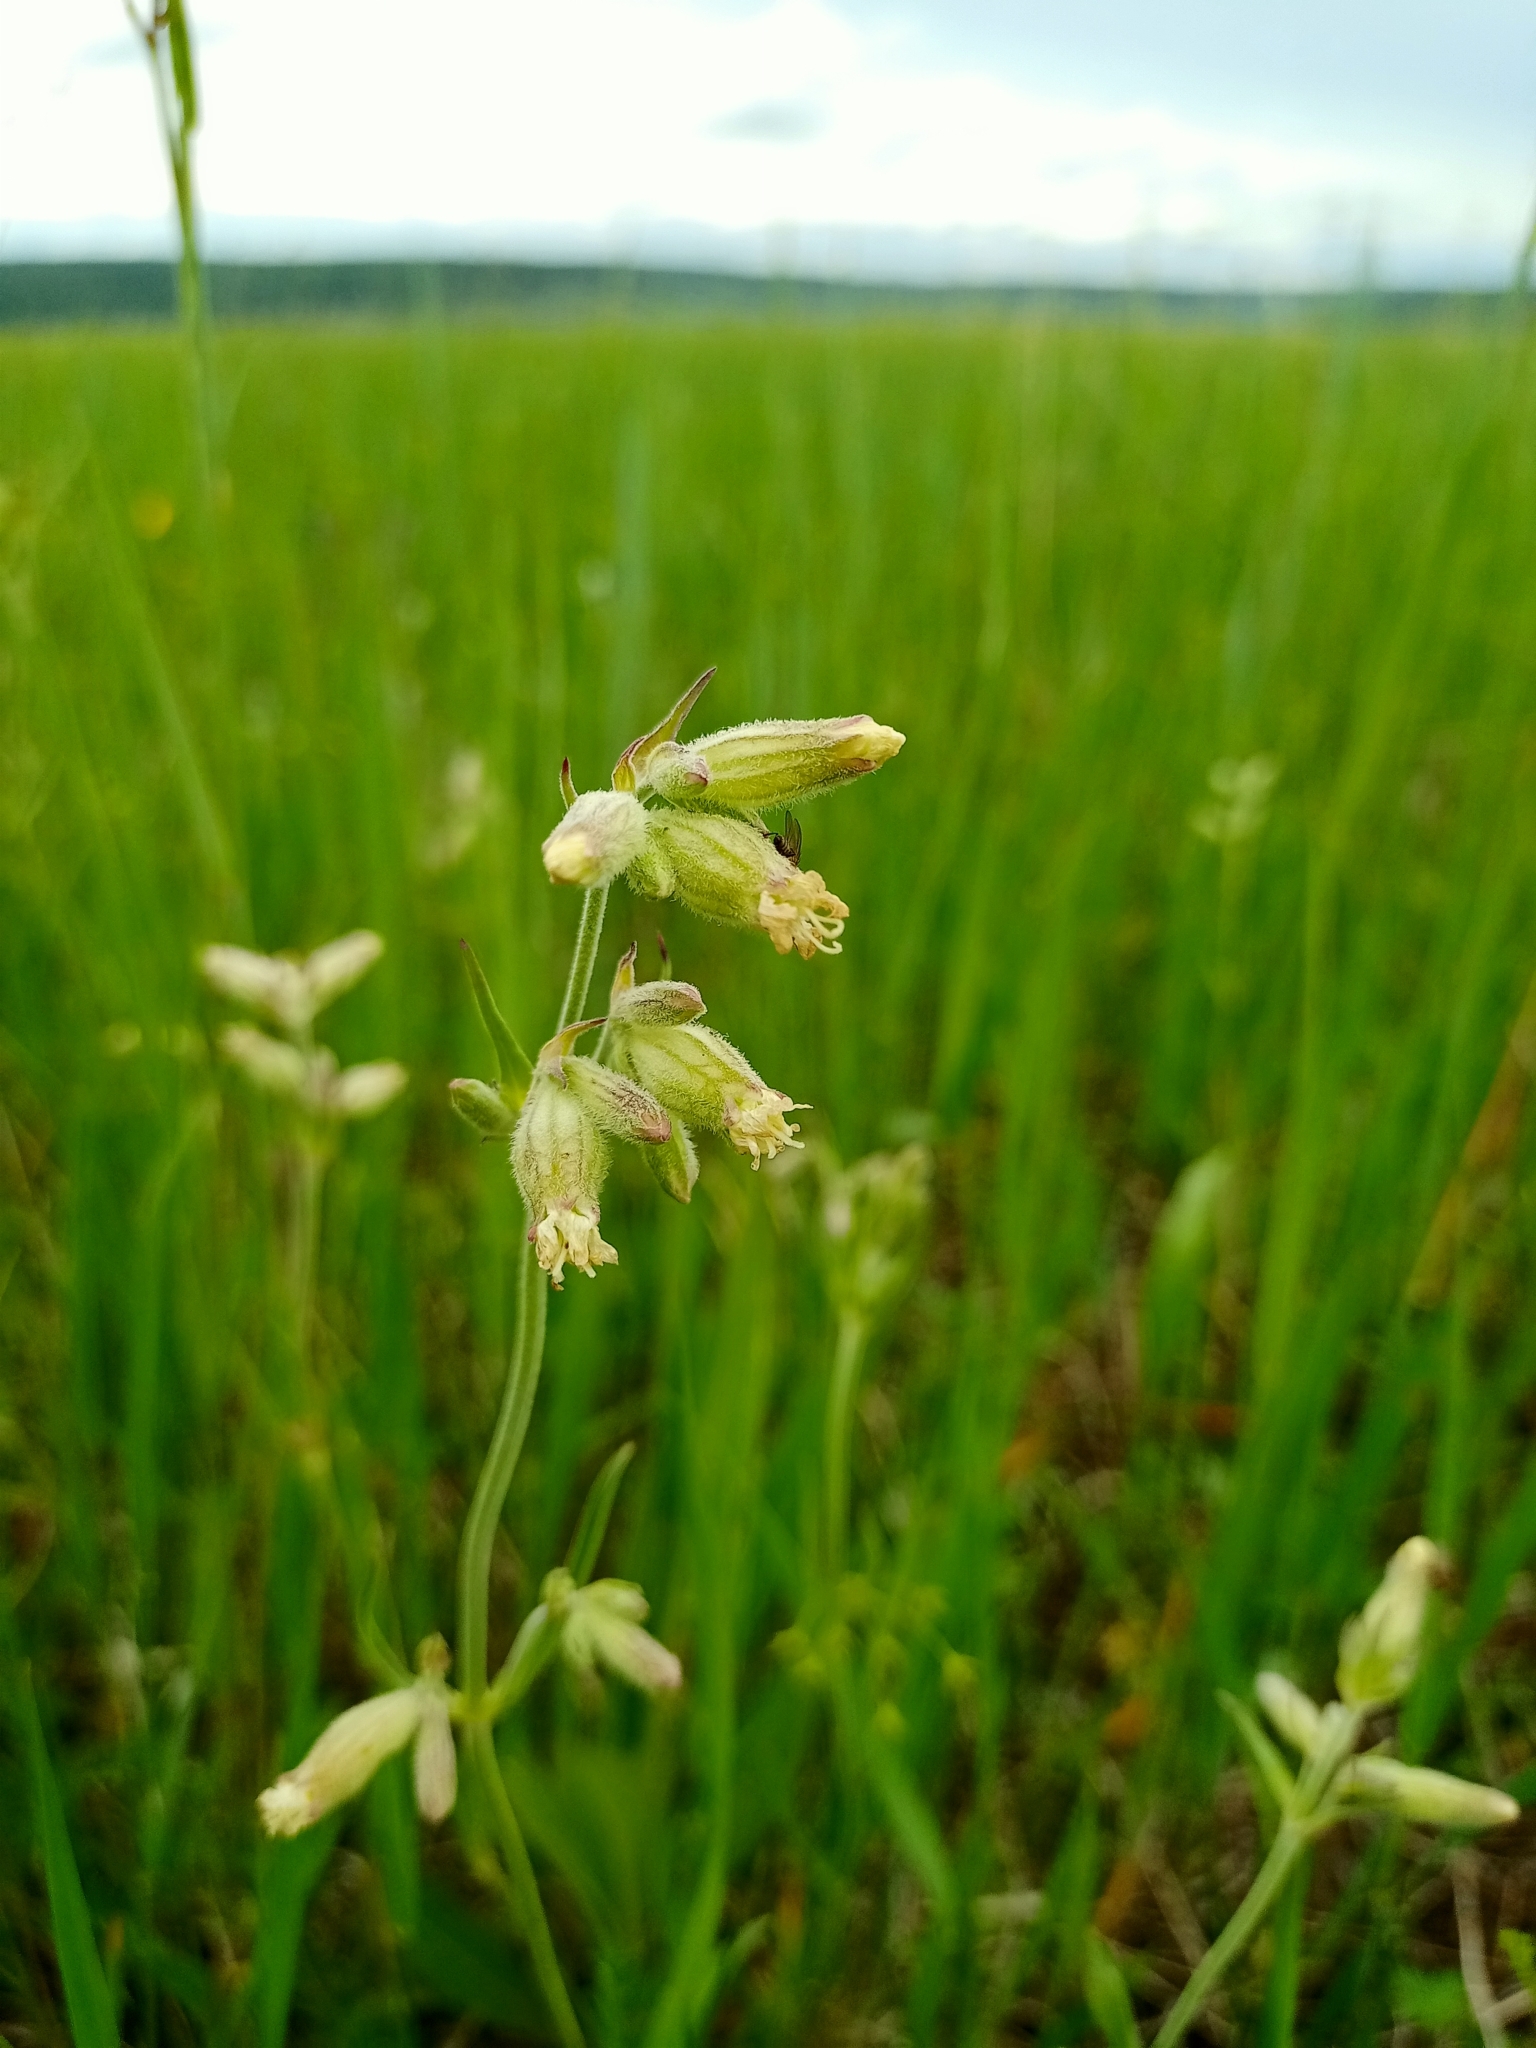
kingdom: Plantae
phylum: Tracheophyta
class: Magnoliopsida
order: Caryophyllales
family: Caryophyllaceae
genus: Silene
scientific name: Silene amoena
